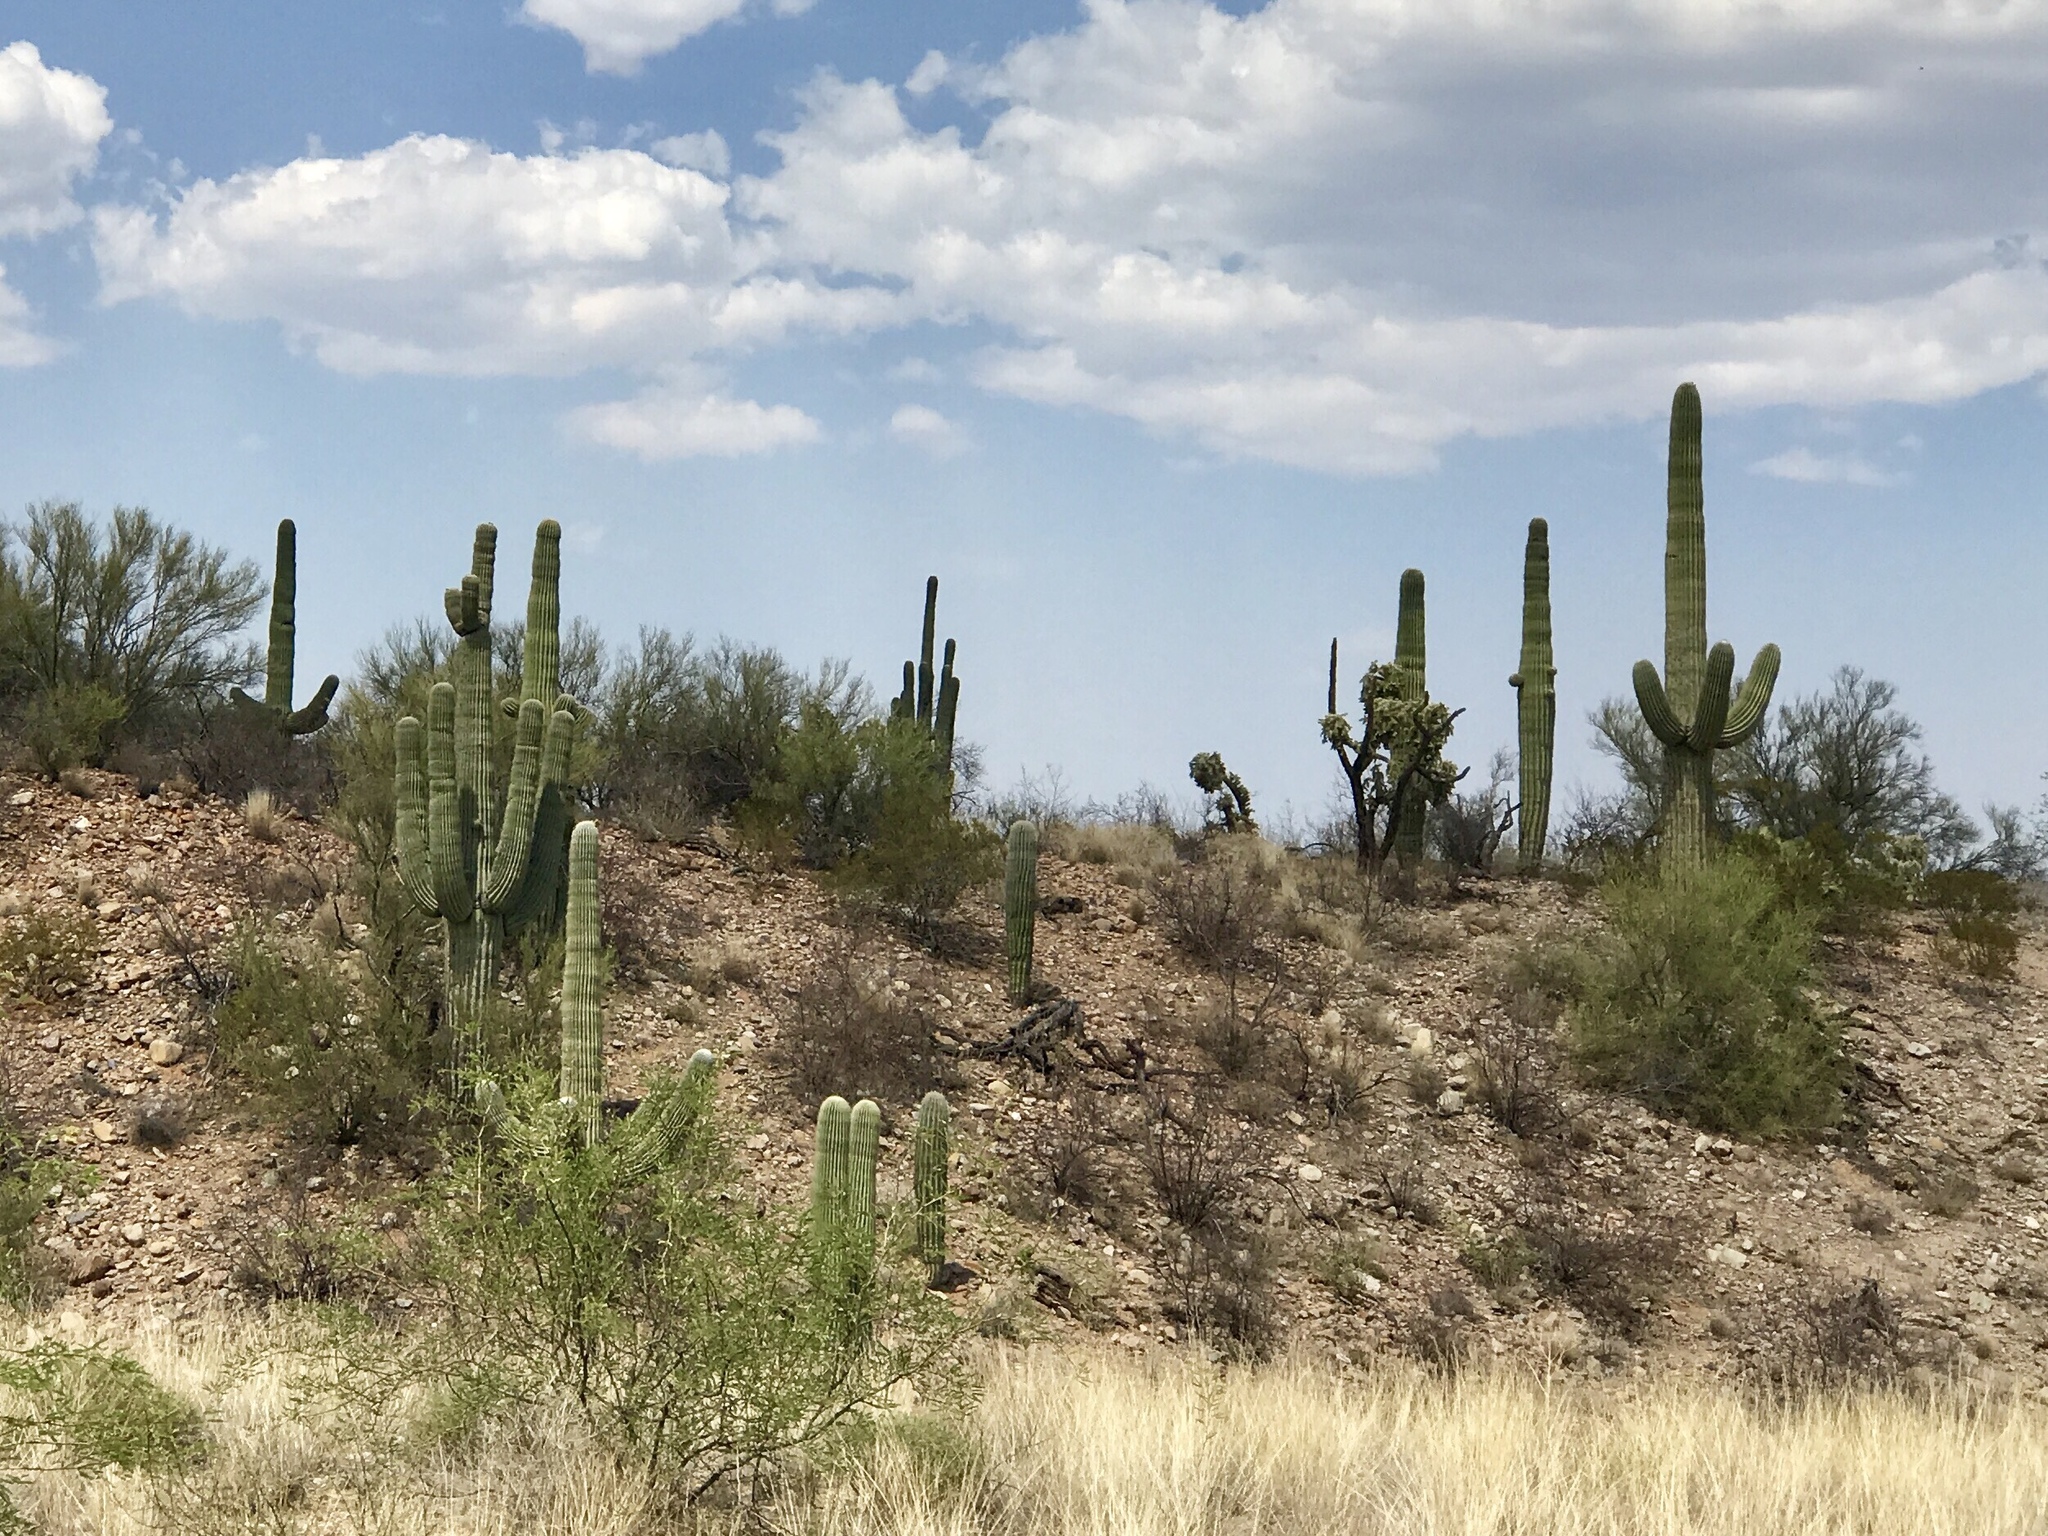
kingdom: Plantae
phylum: Tracheophyta
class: Magnoliopsida
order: Caryophyllales
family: Cactaceae
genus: Carnegiea
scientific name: Carnegiea gigantea
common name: Saguaro
